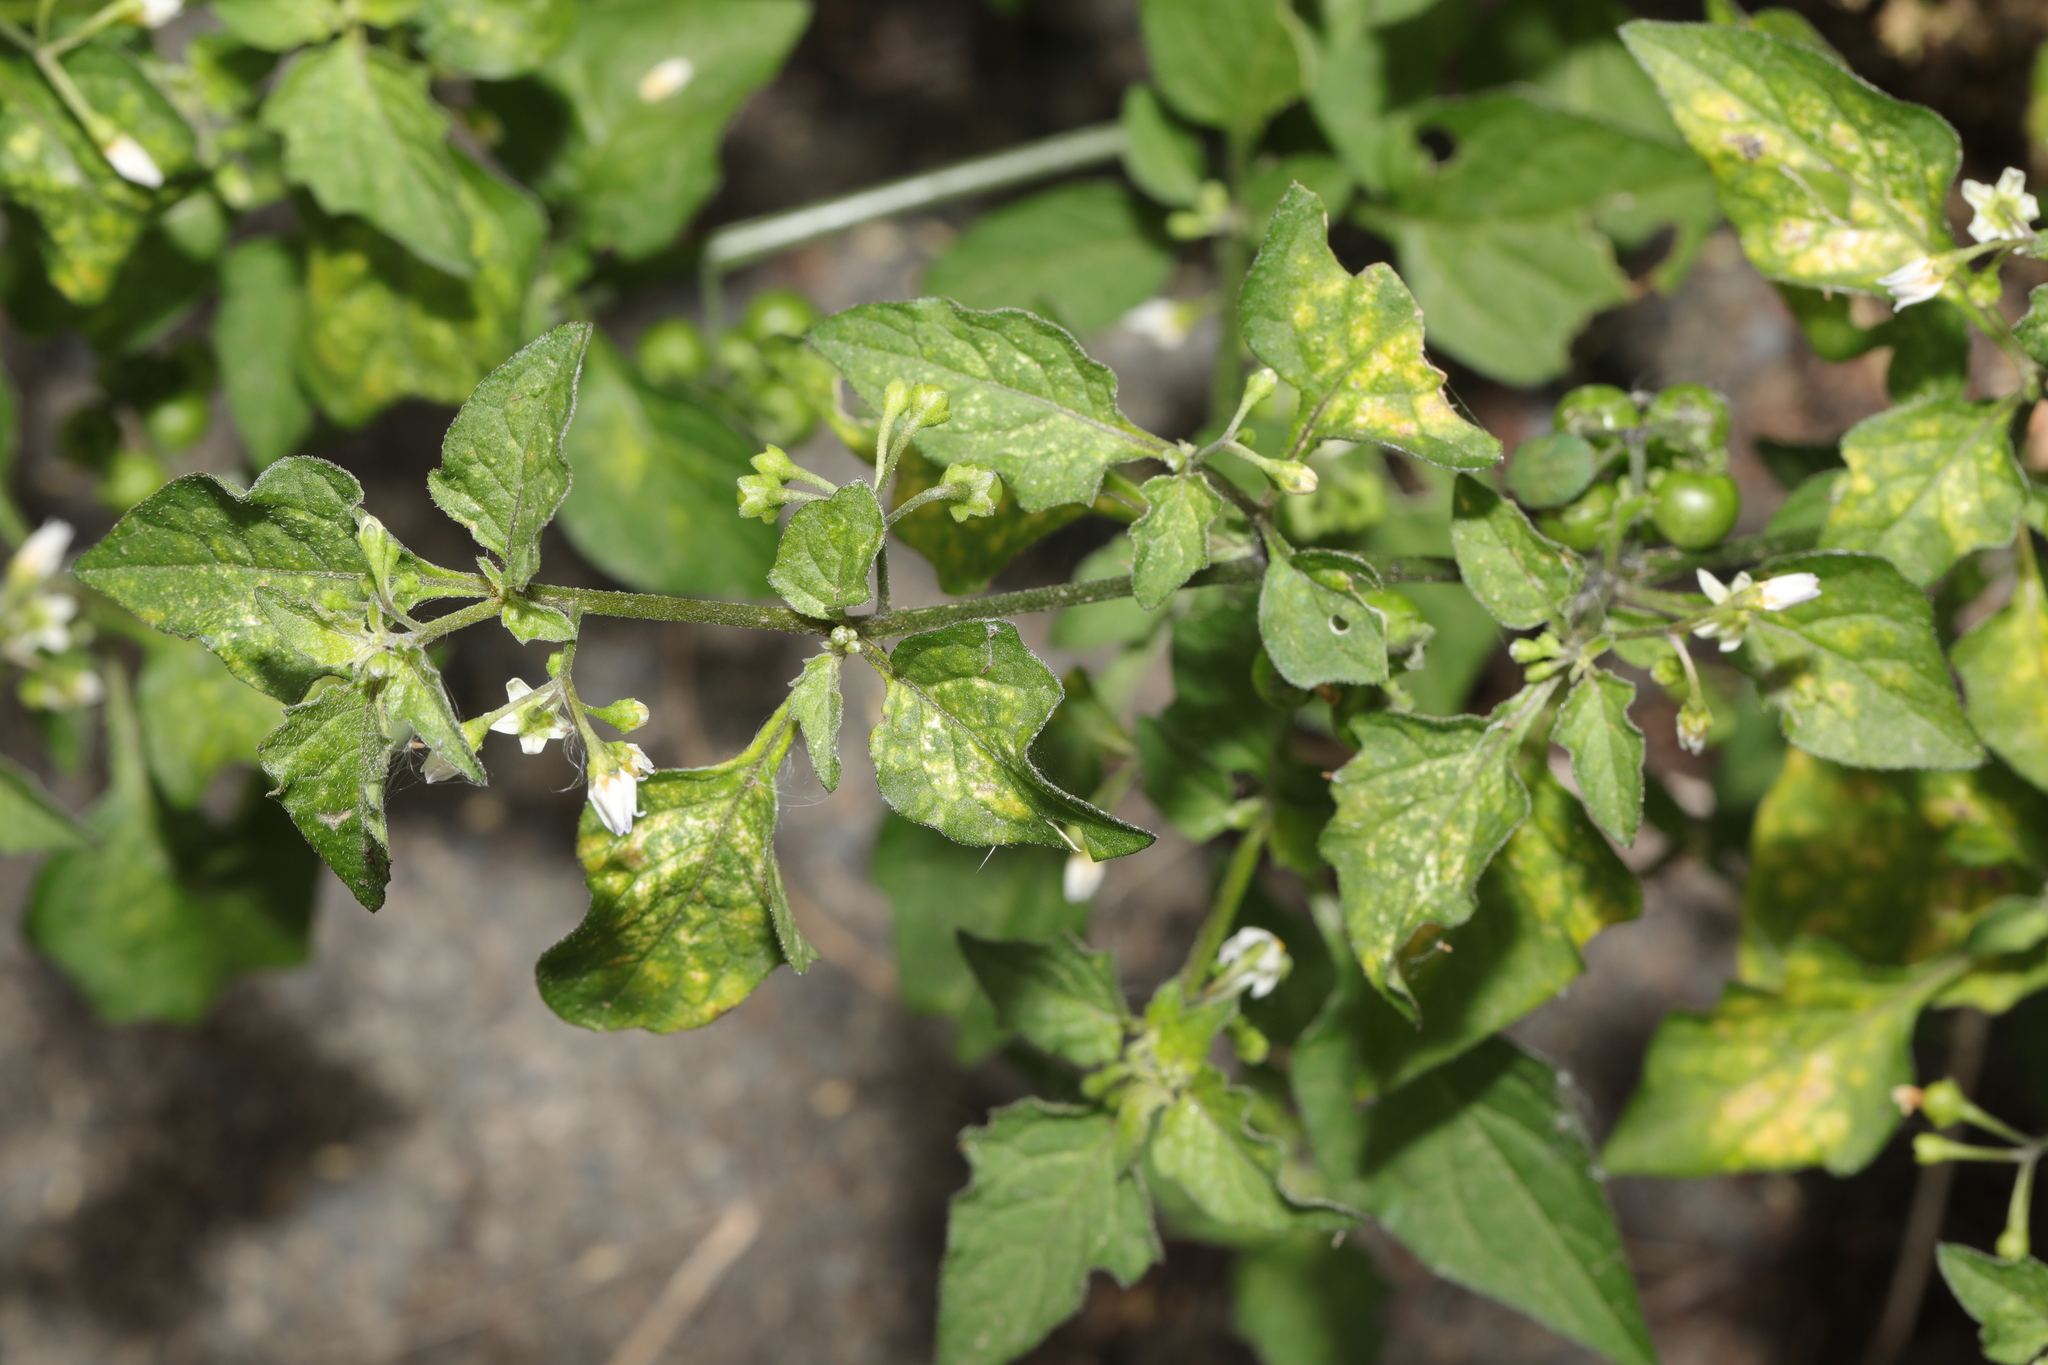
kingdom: Plantae
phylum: Tracheophyta
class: Magnoliopsida
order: Solanales
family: Solanaceae
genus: Solanum
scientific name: Solanum nigrum
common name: Black nightshade
